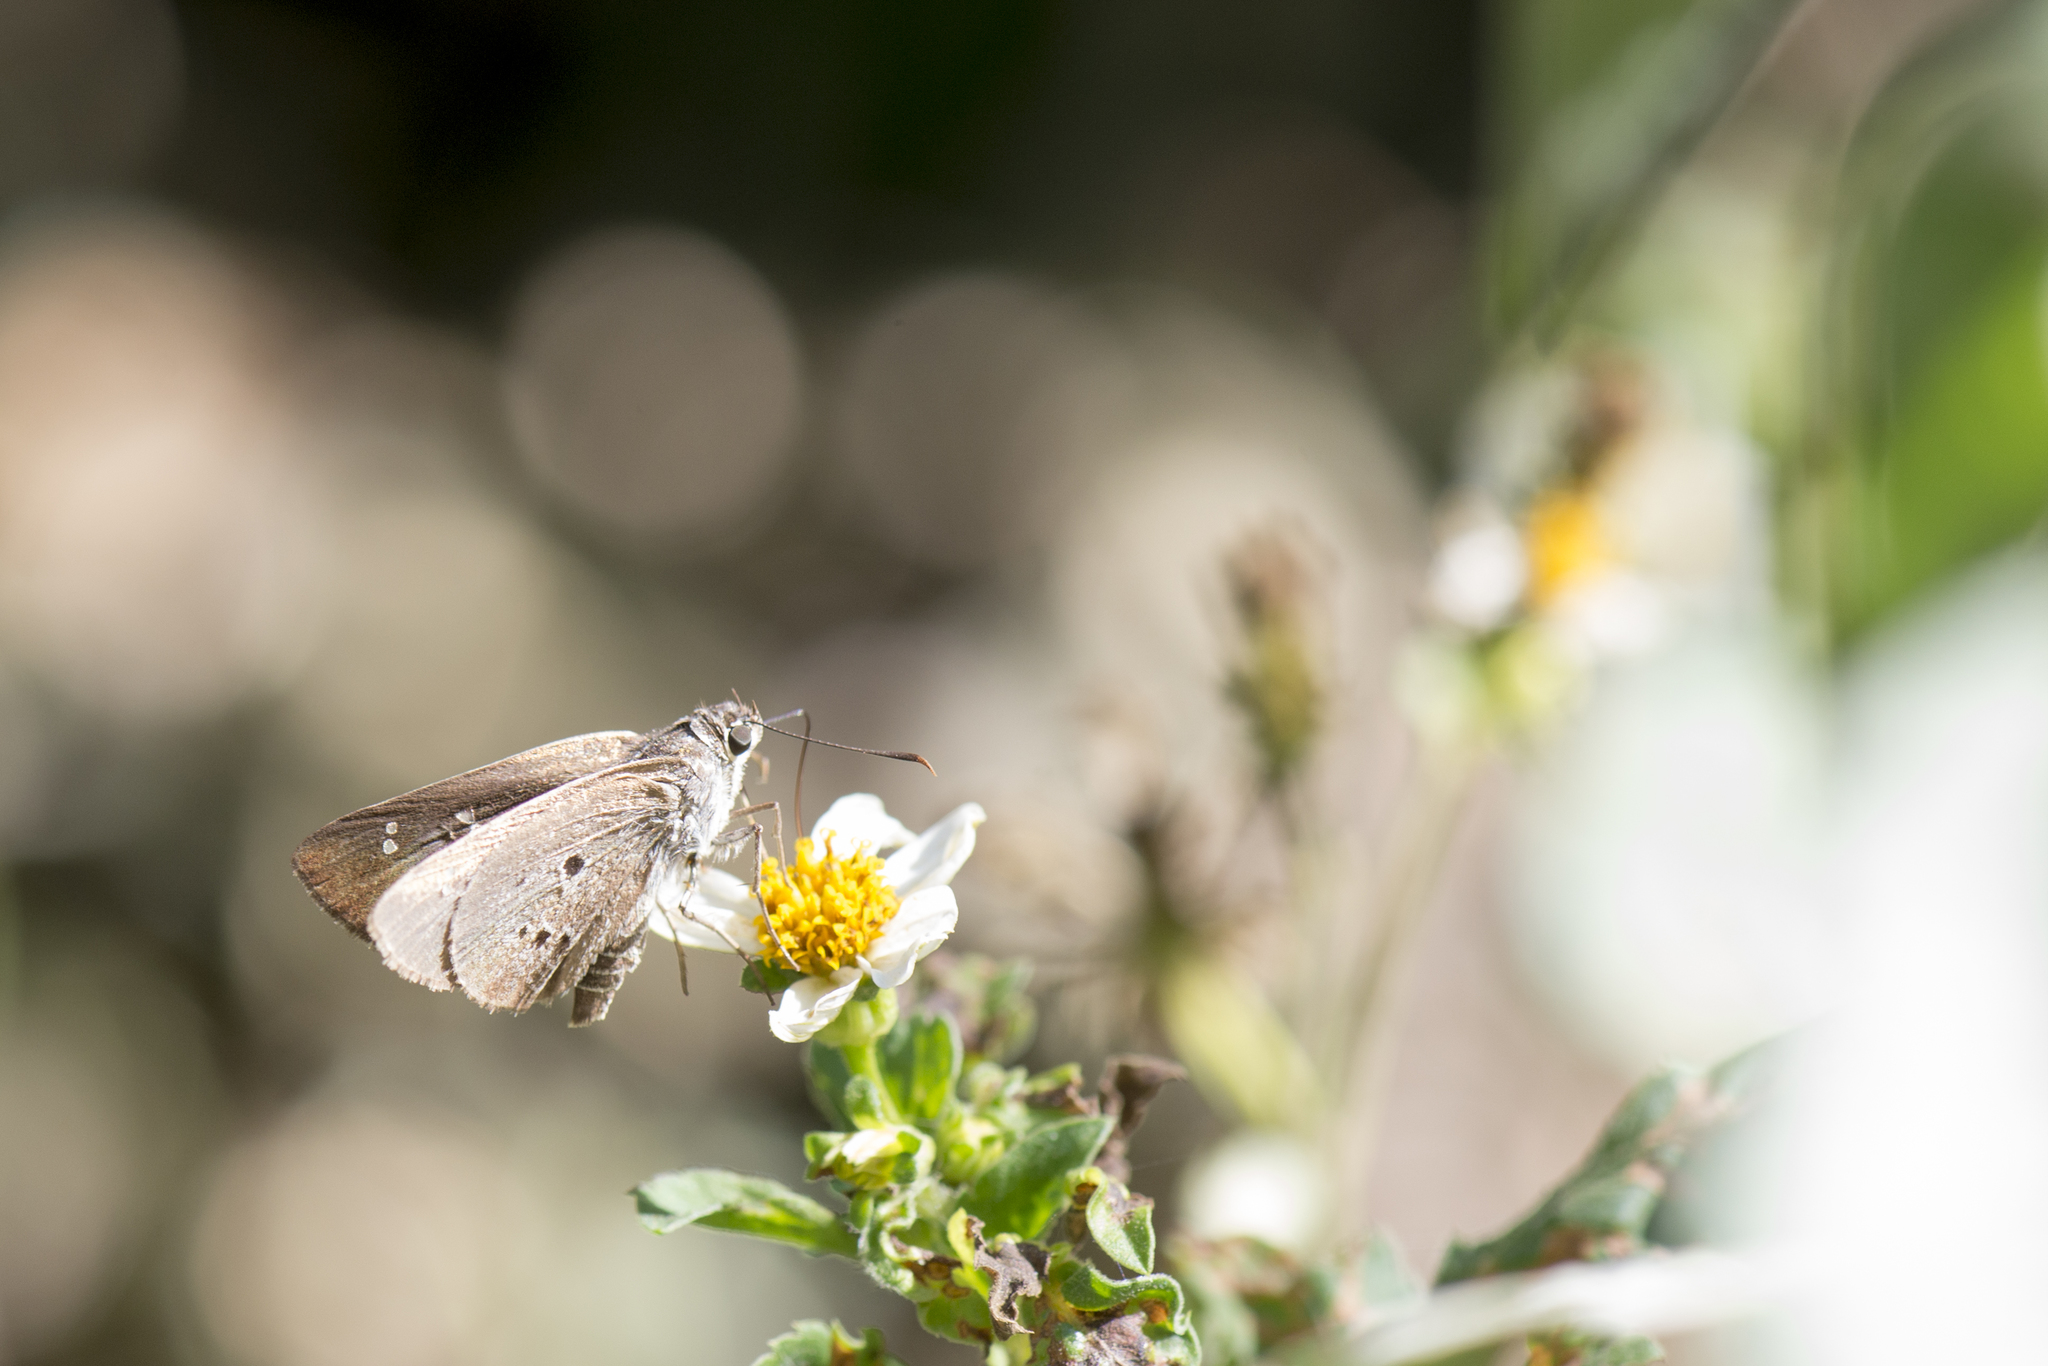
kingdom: Animalia
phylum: Arthropoda
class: Insecta
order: Lepidoptera
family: Hesperiidae
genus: Suastus
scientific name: Suastus gremius
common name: Indian palm bob
